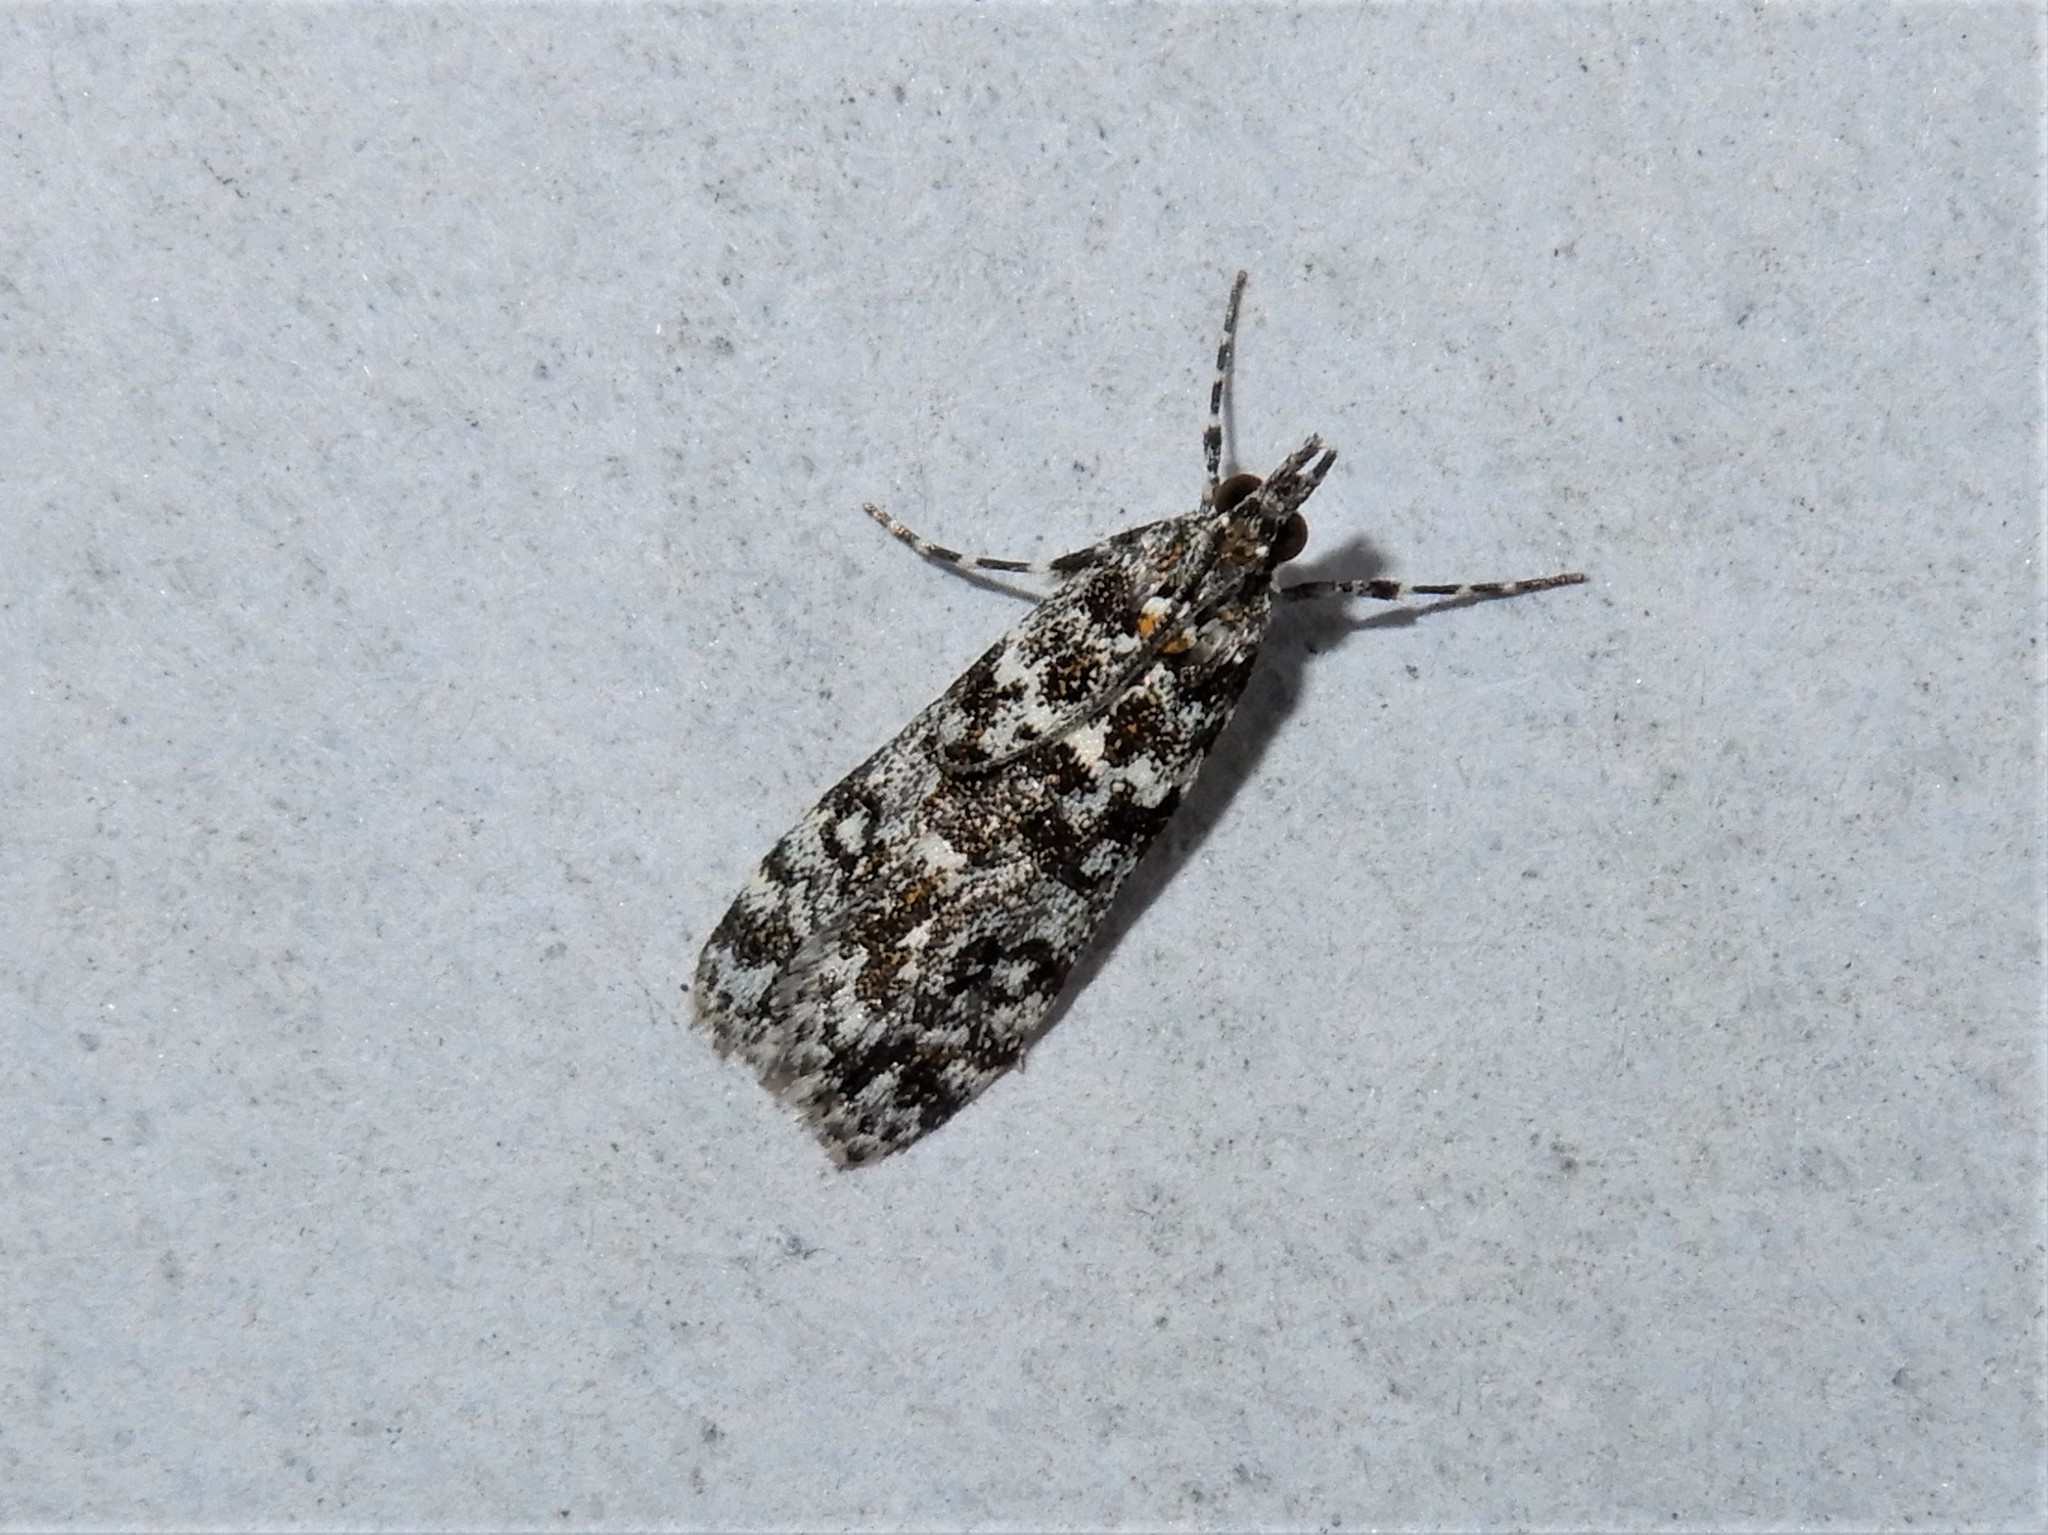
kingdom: Animalia
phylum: Arthropoda
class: Insecta
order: Lepidoptera
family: Crambidae
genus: Eudonia
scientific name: Eudonia
